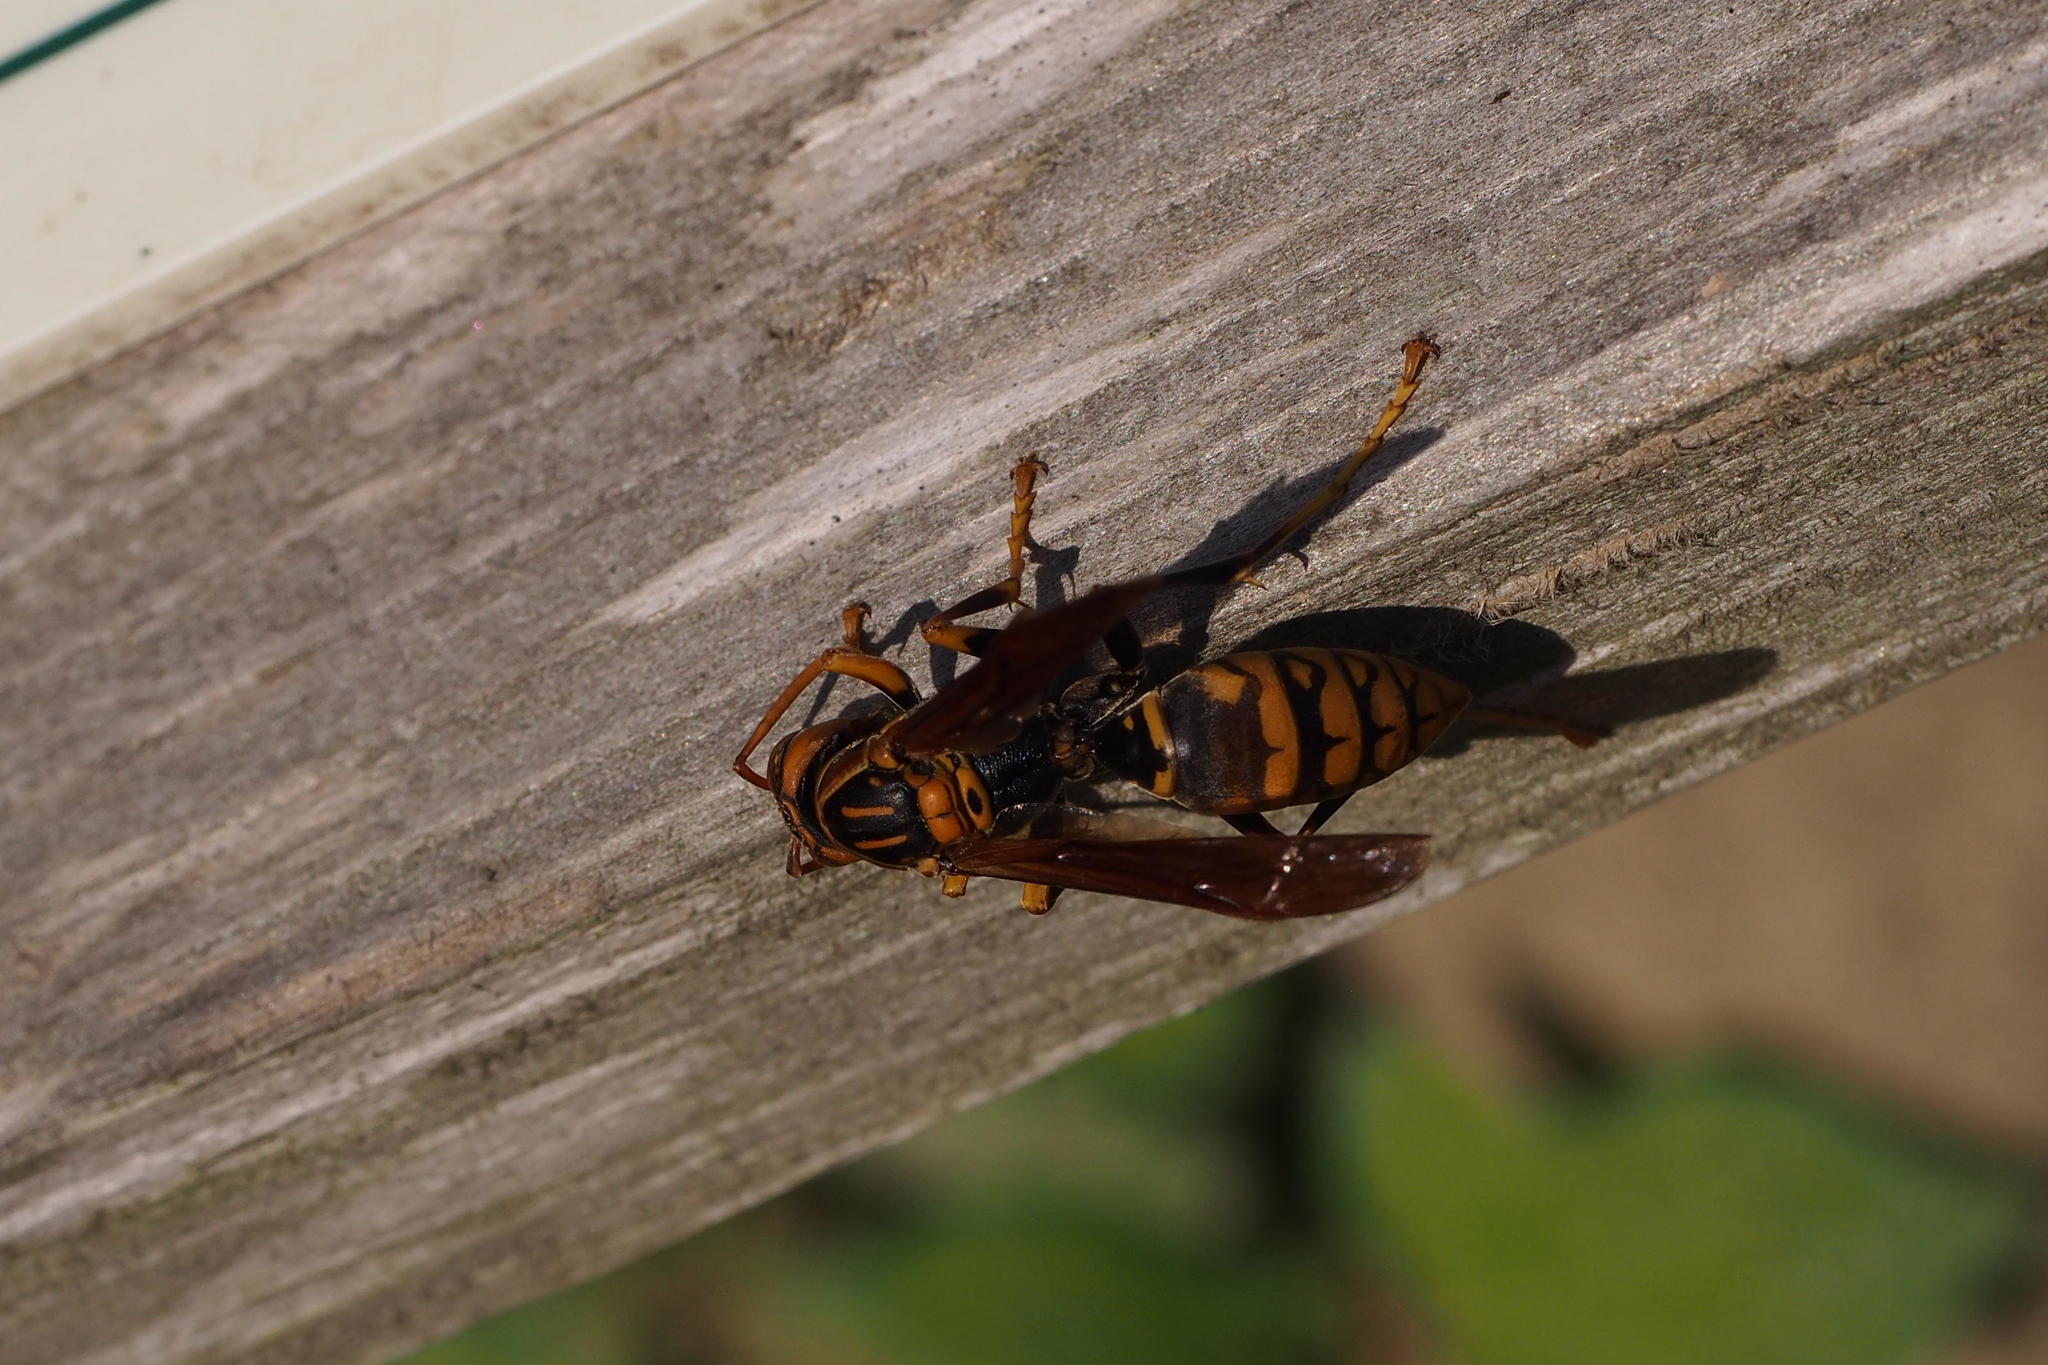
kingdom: Animalia
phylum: Arthropoda
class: Insecta
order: Hymenoptera
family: Eumenidae
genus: Polistes
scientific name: Polistes jokahamae
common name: Paper wasp
